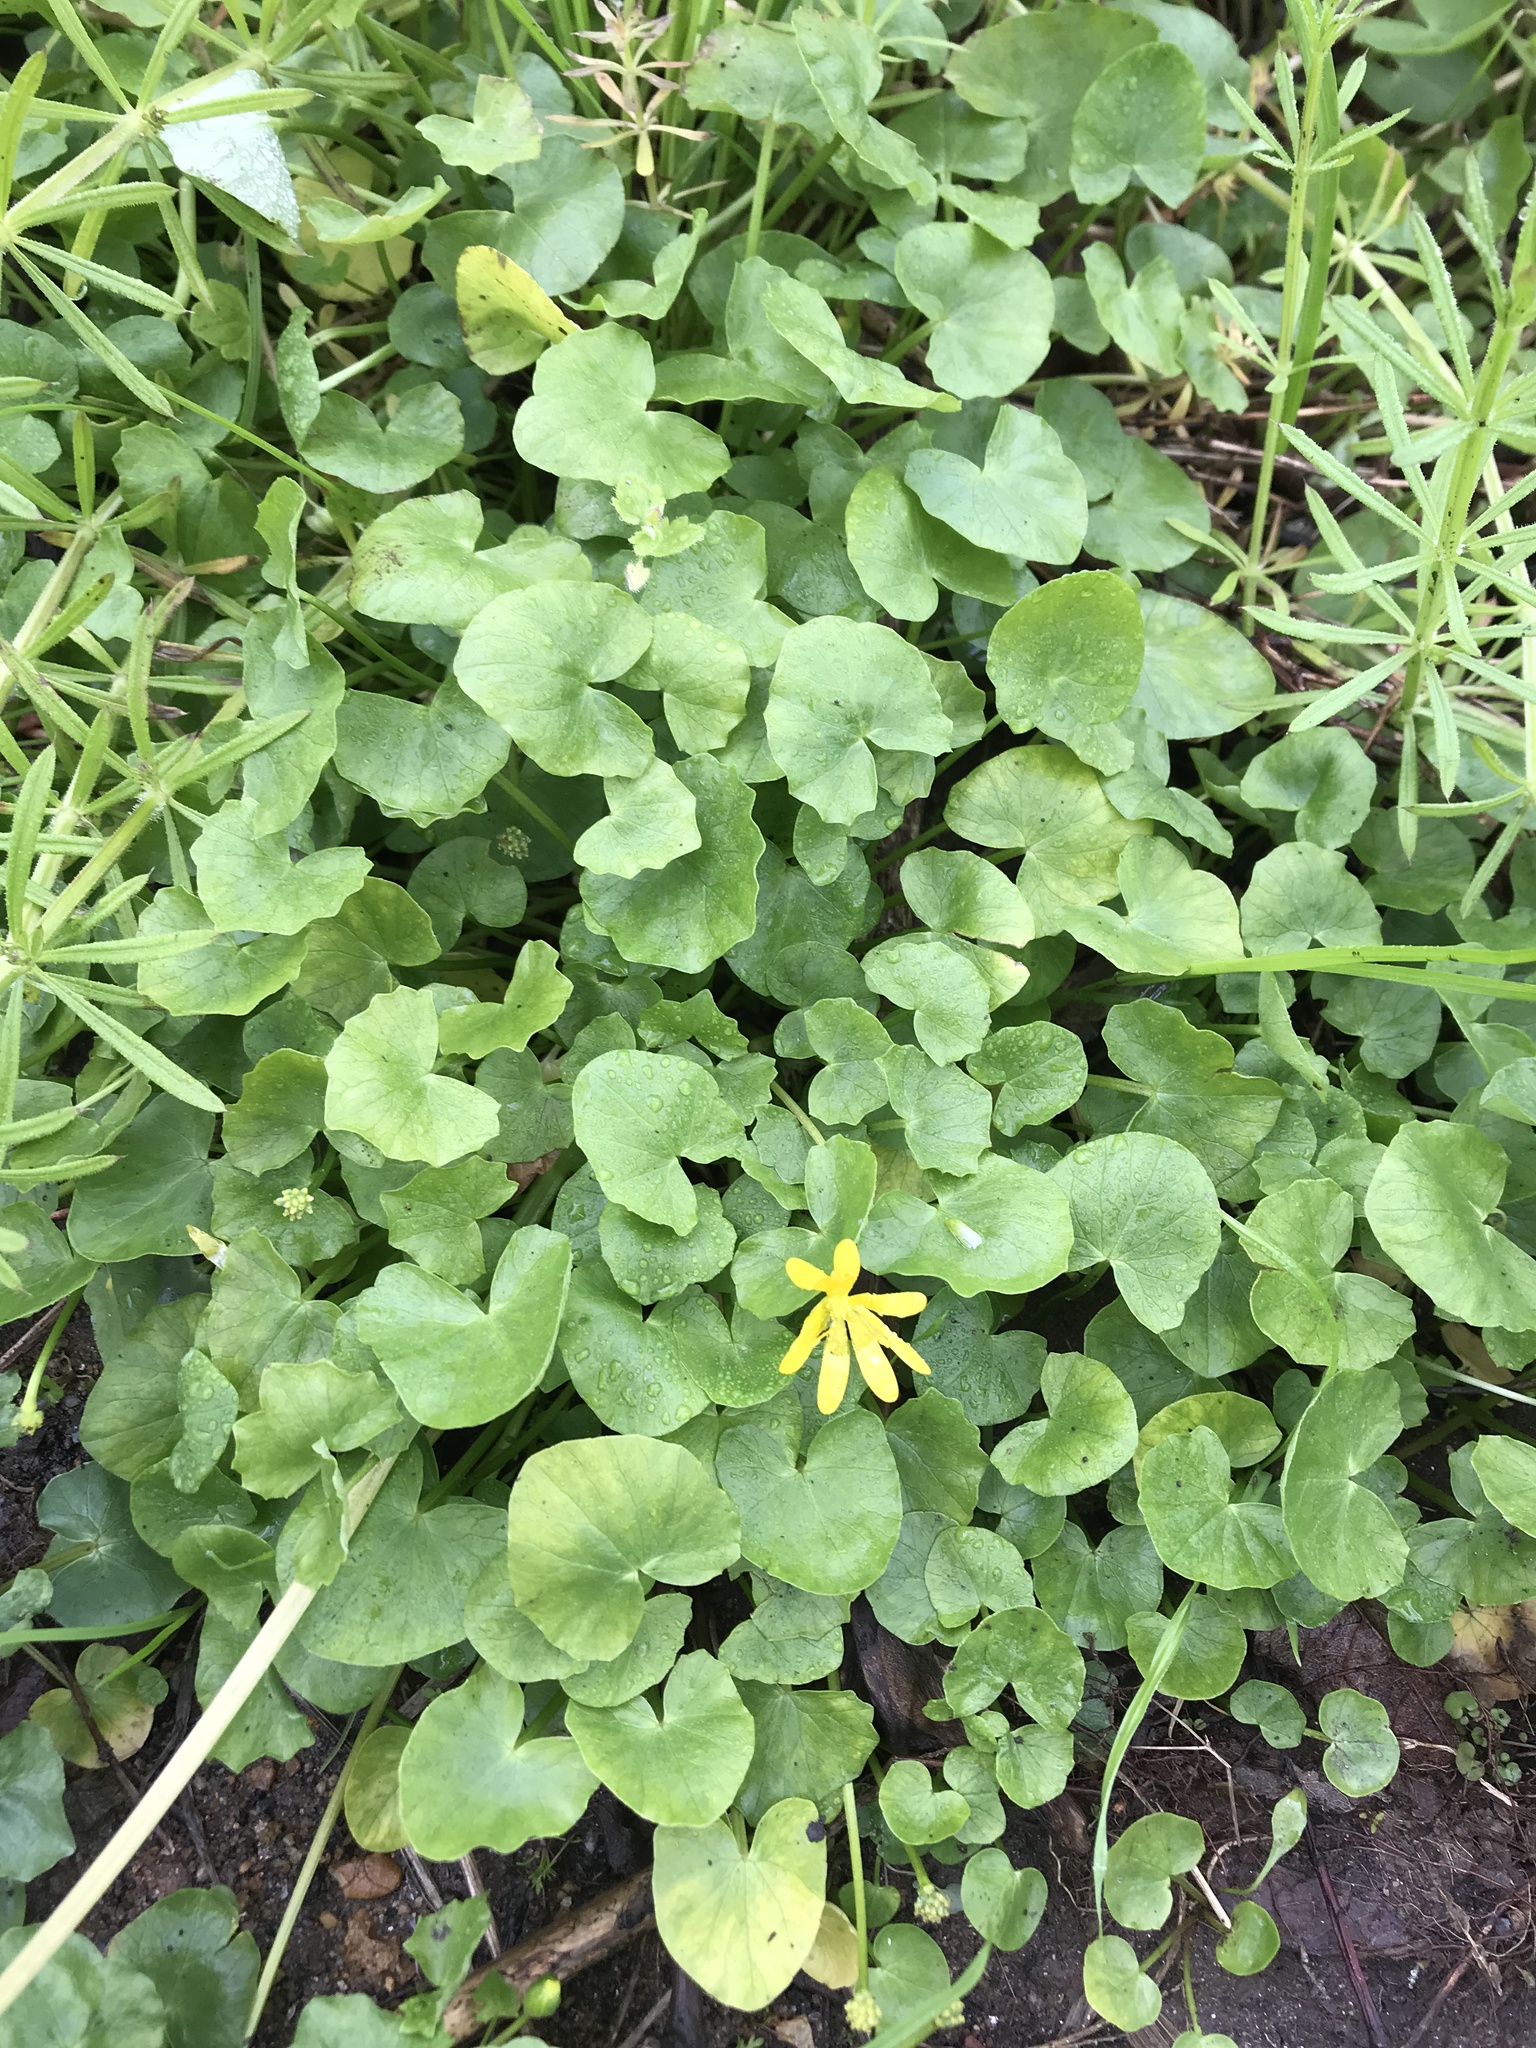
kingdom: Plantae
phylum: Tracheophyta
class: Magnoliopsida
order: Ranunculales
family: Ranunculaceae
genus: Ficaria
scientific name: Ficaria verna
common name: Lesser celandine
